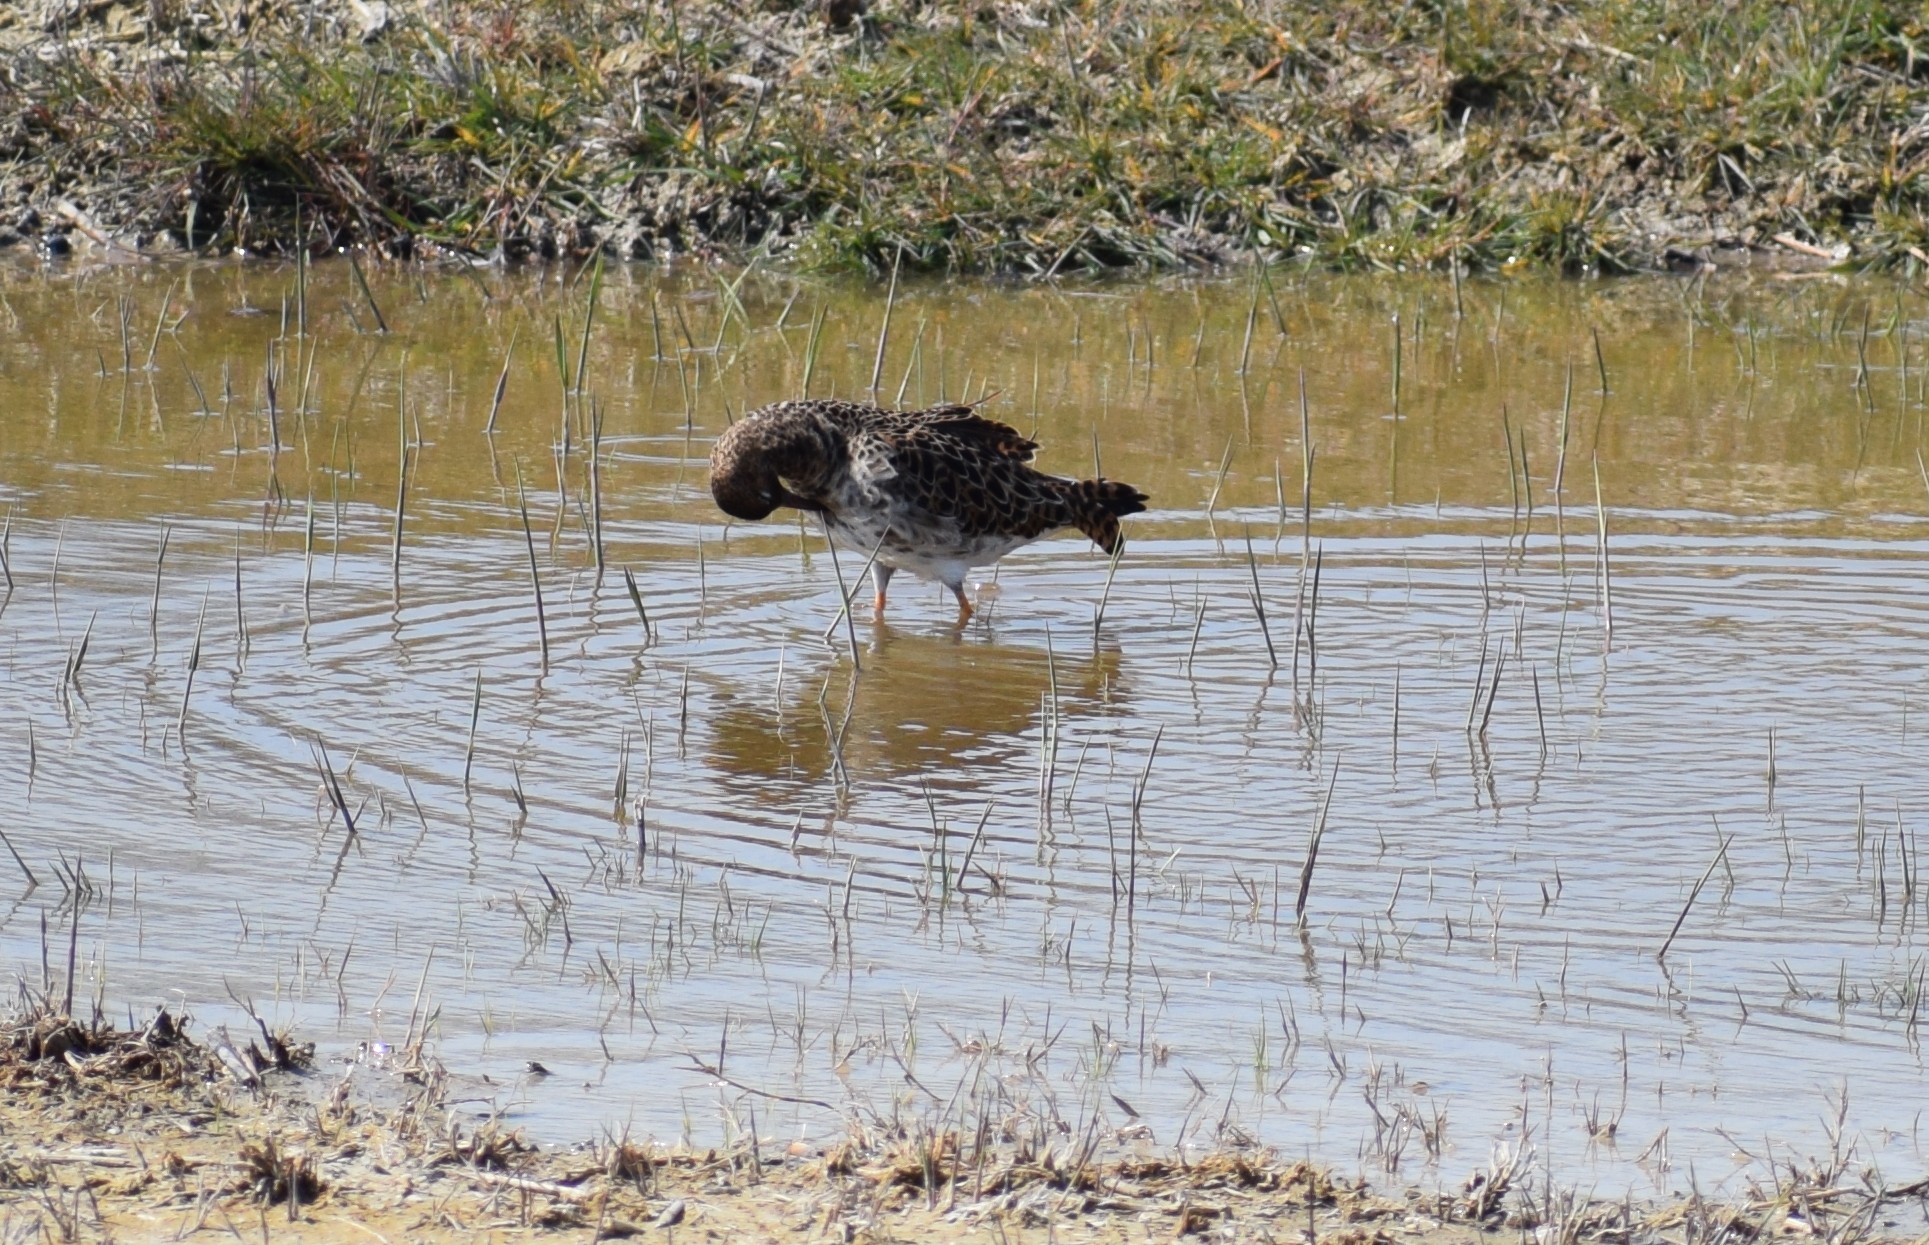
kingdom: Animalia
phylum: Chordata
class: Aves
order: Charadriiformes
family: Scolopacidae
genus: Calidris
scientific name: Calidris pugnax
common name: Ruff
